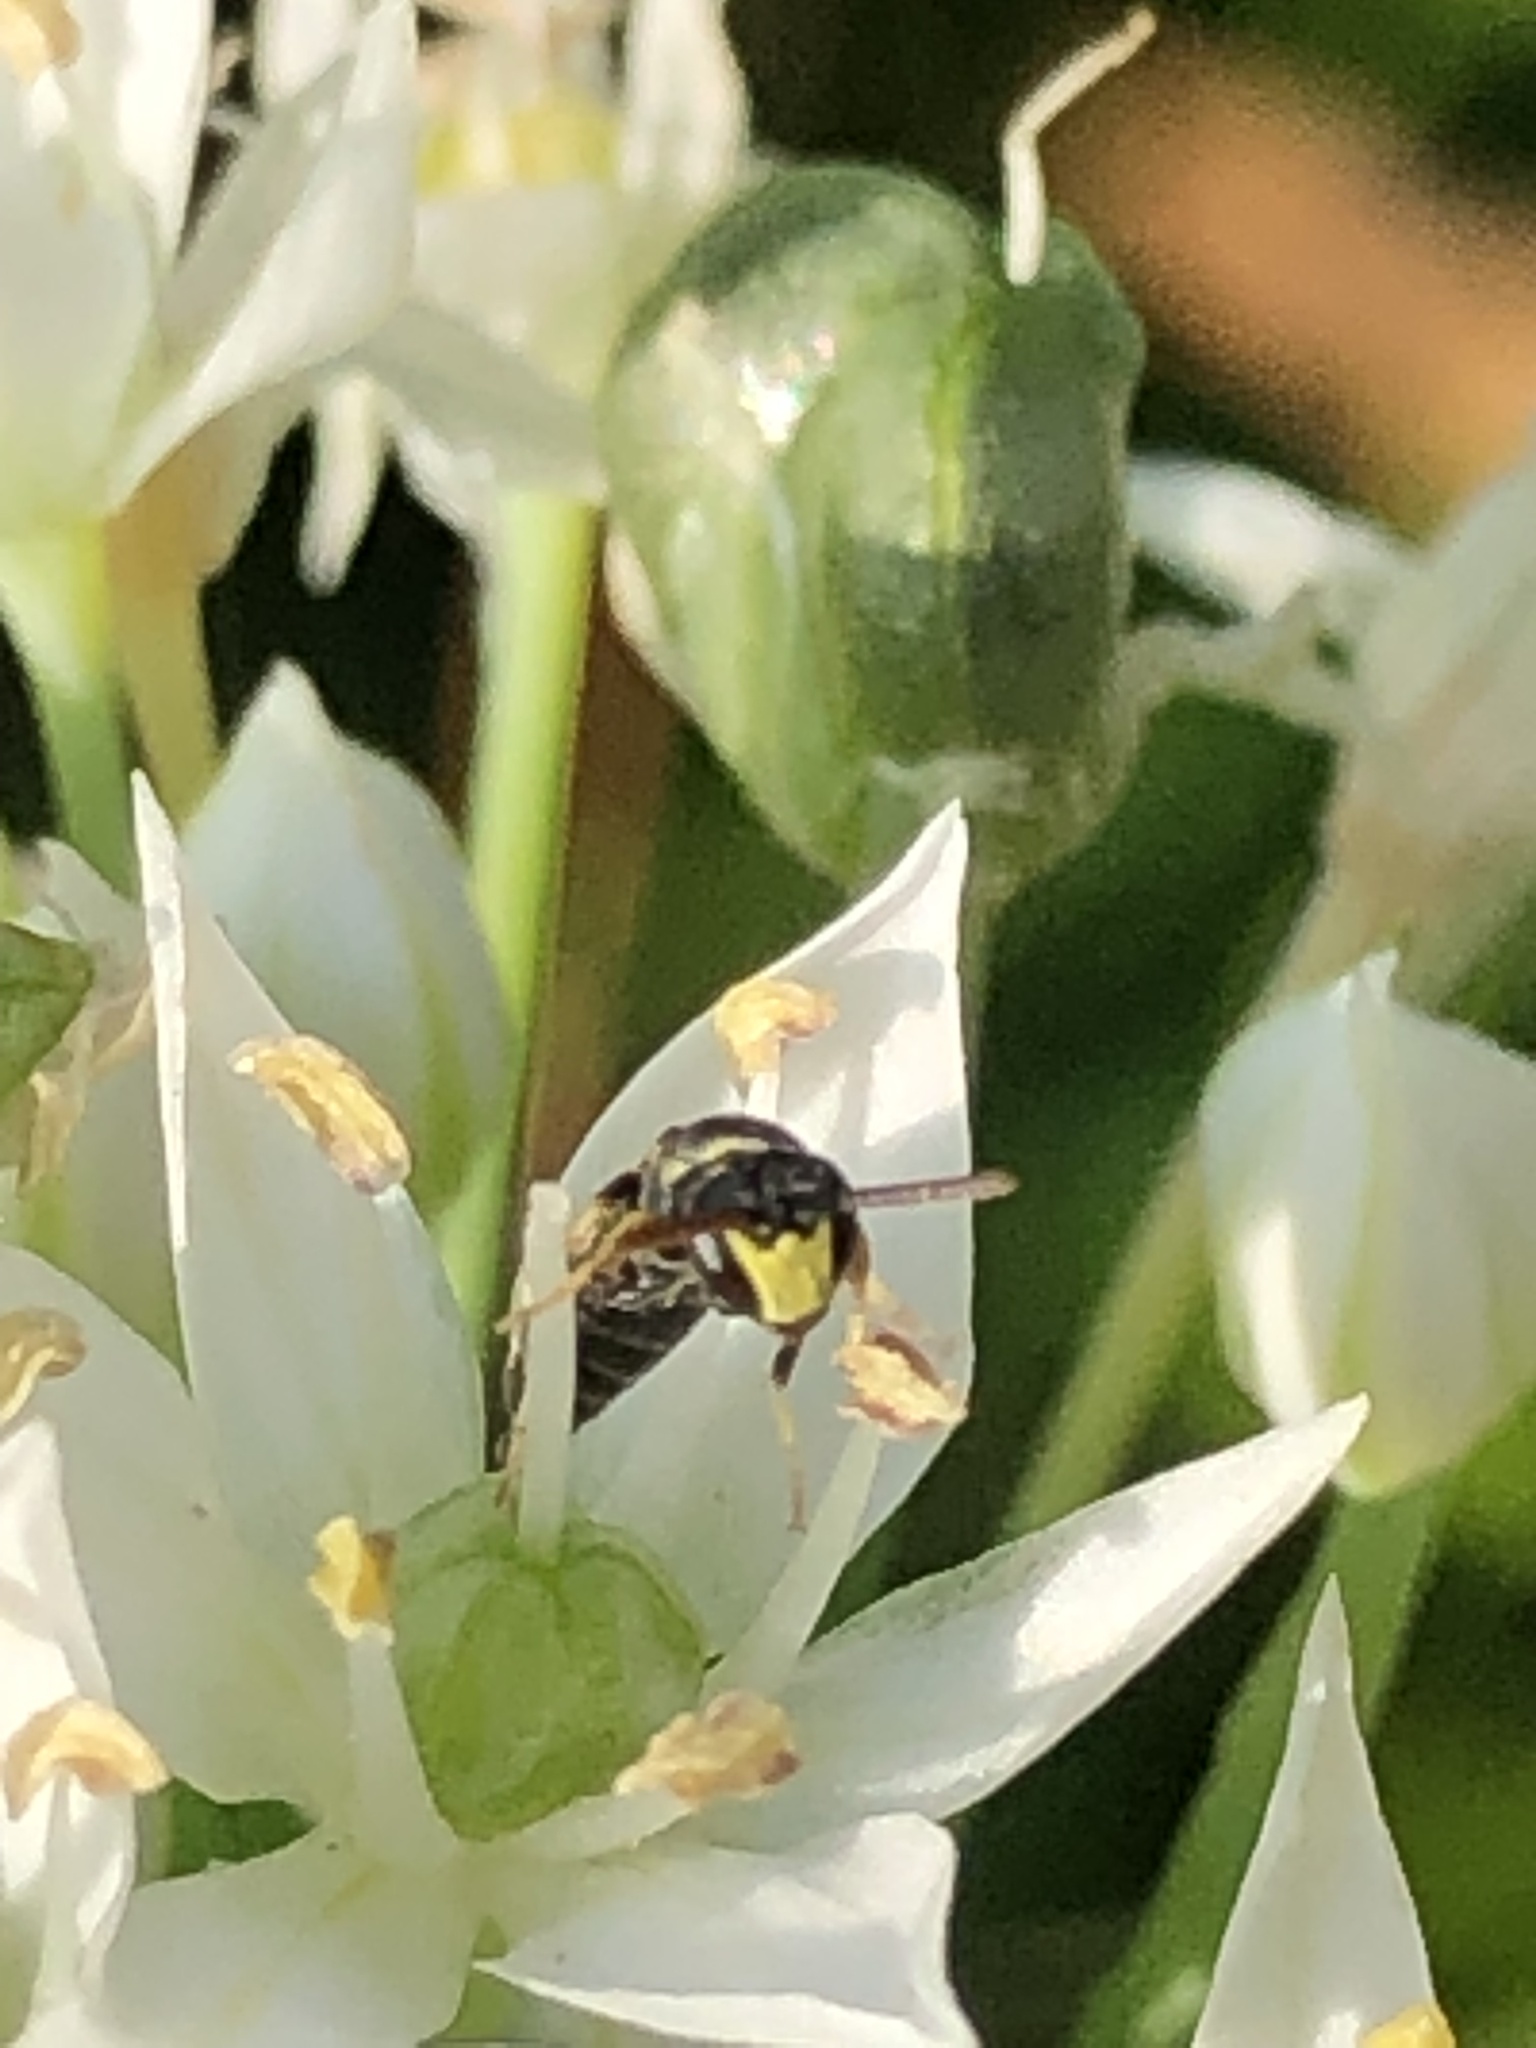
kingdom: Animalia
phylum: Arthropoda
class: Insecta
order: Hymenoptera
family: Colletidae
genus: Hylaeus
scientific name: Hylaeus modestus
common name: Yellow-faced bee
